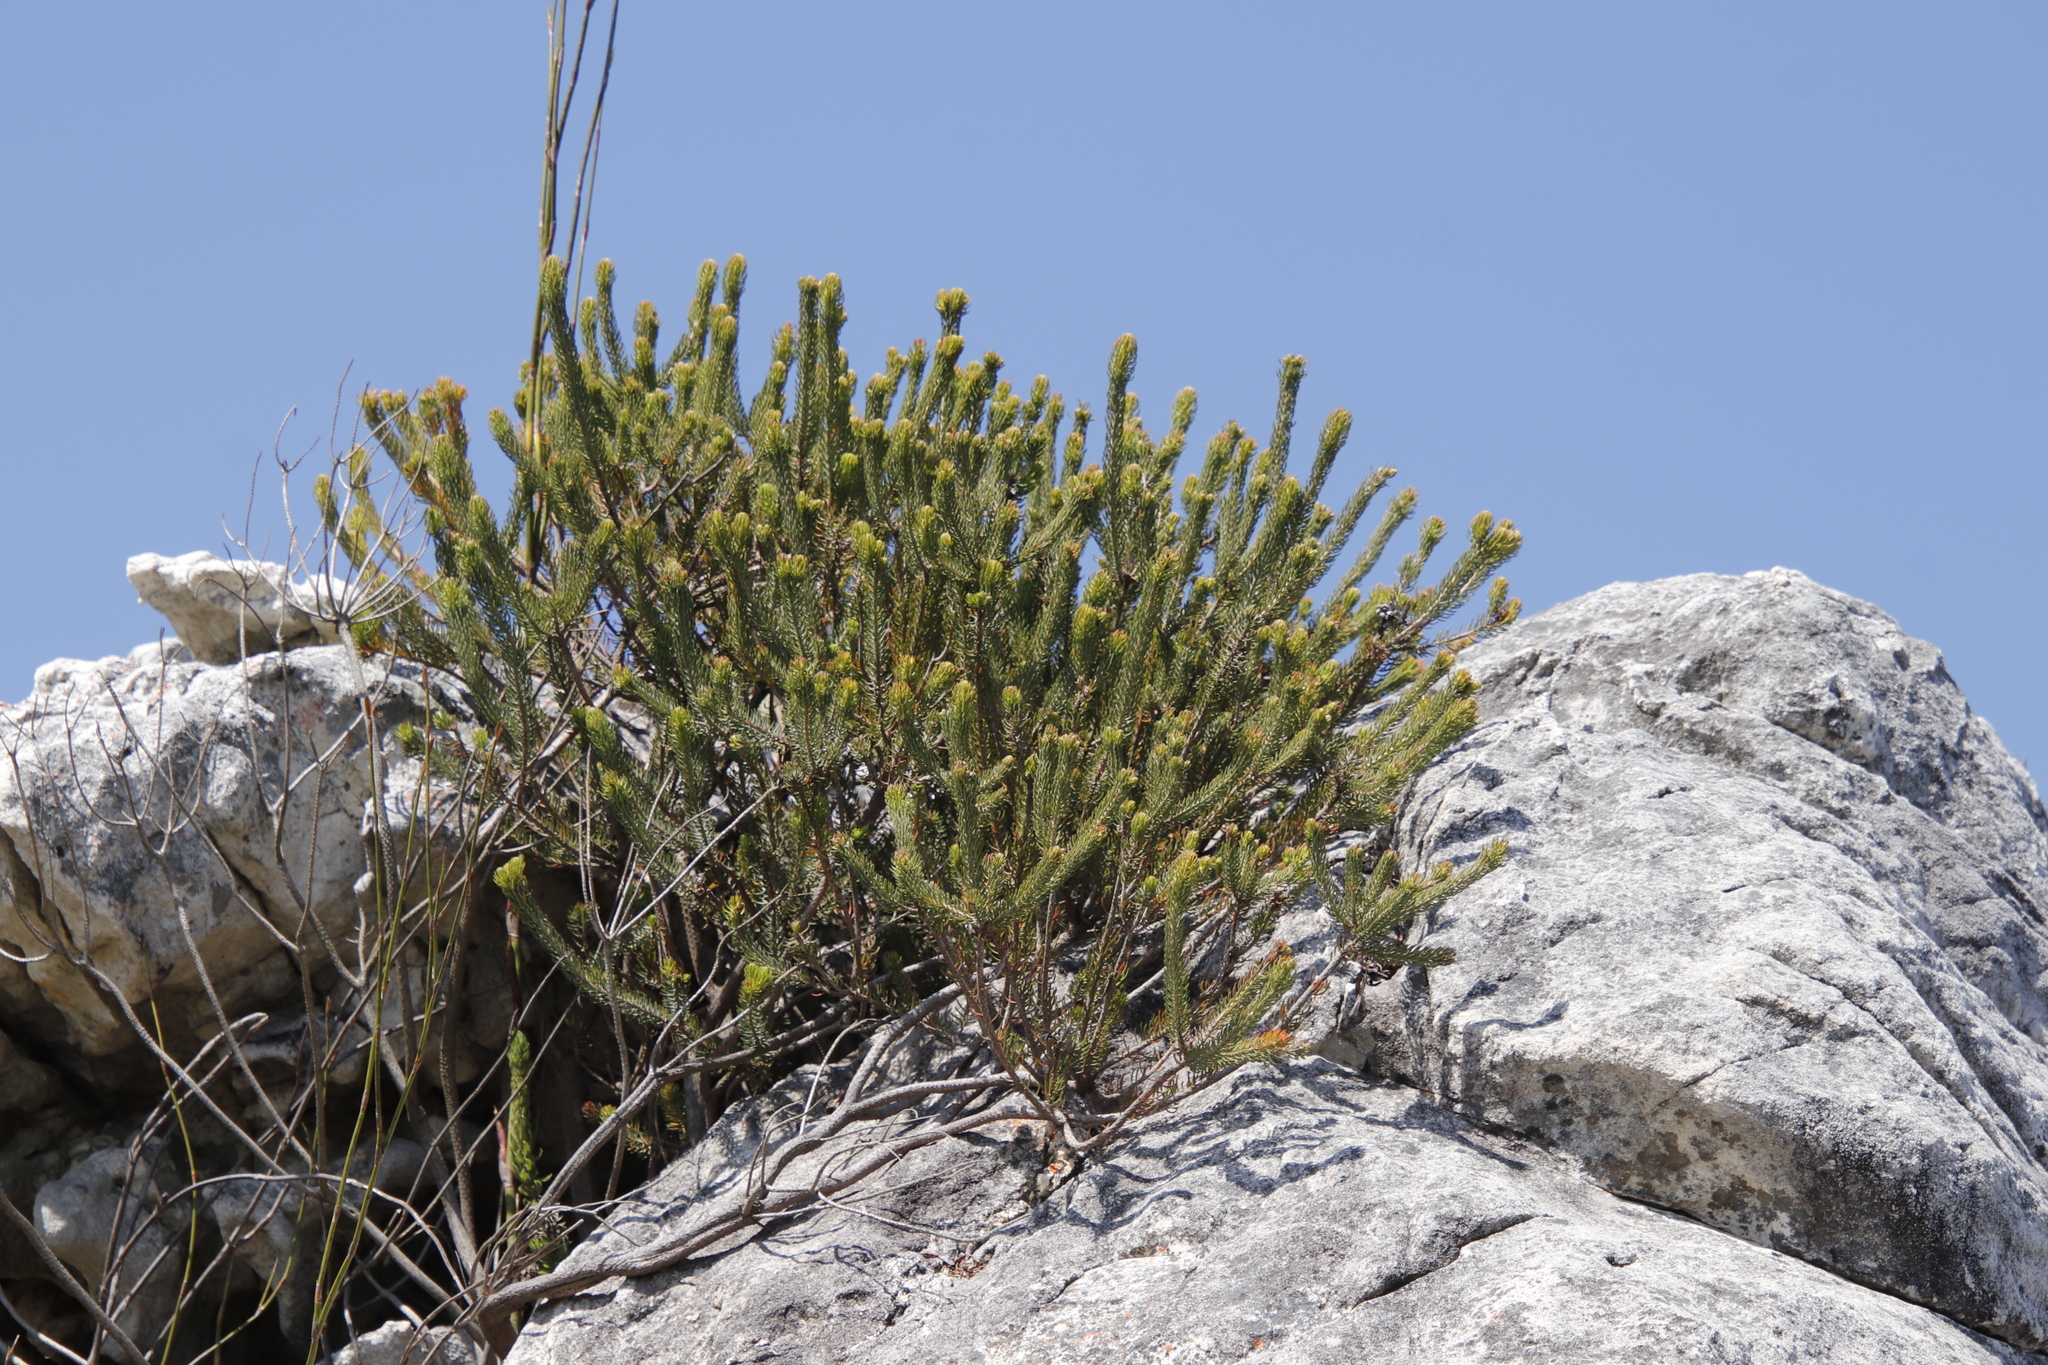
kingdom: Plantae
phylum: Tracheophyta
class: Magnoliopsida
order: Ericales
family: Ericaceae
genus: Erica
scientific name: Erica thomae
